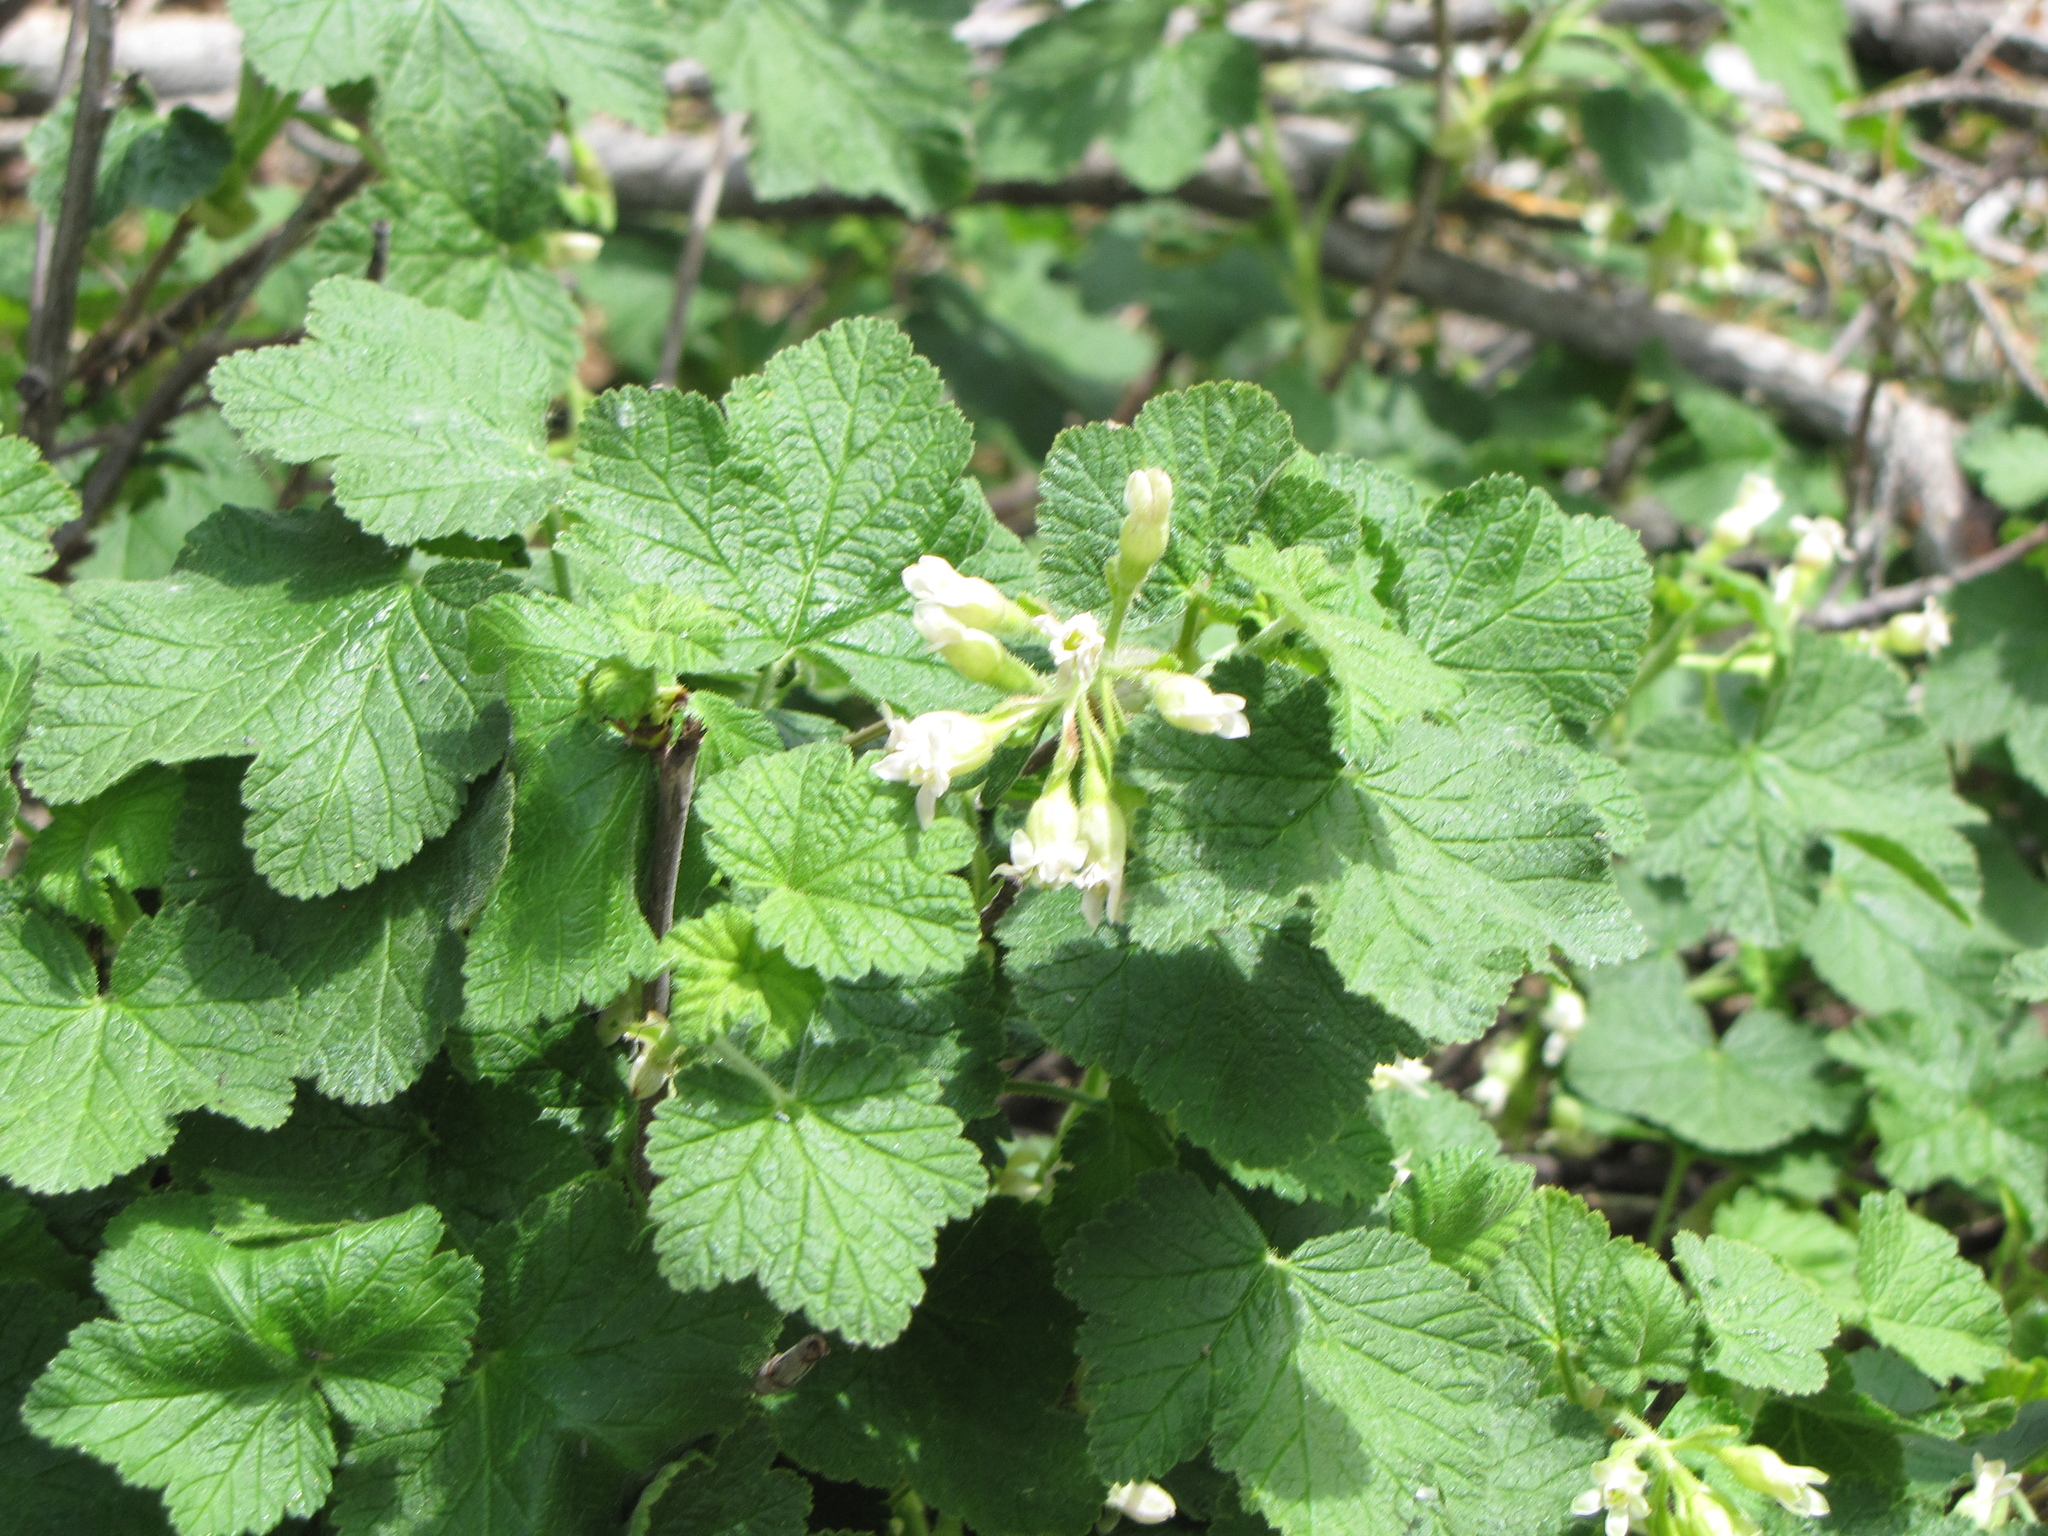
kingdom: Plantae
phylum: Tracheophyta
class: Magnoliopsida
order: Saxifragales
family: Grossulariaceae
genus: Ribes
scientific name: Ribes viscosissimum
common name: Sticky currant
